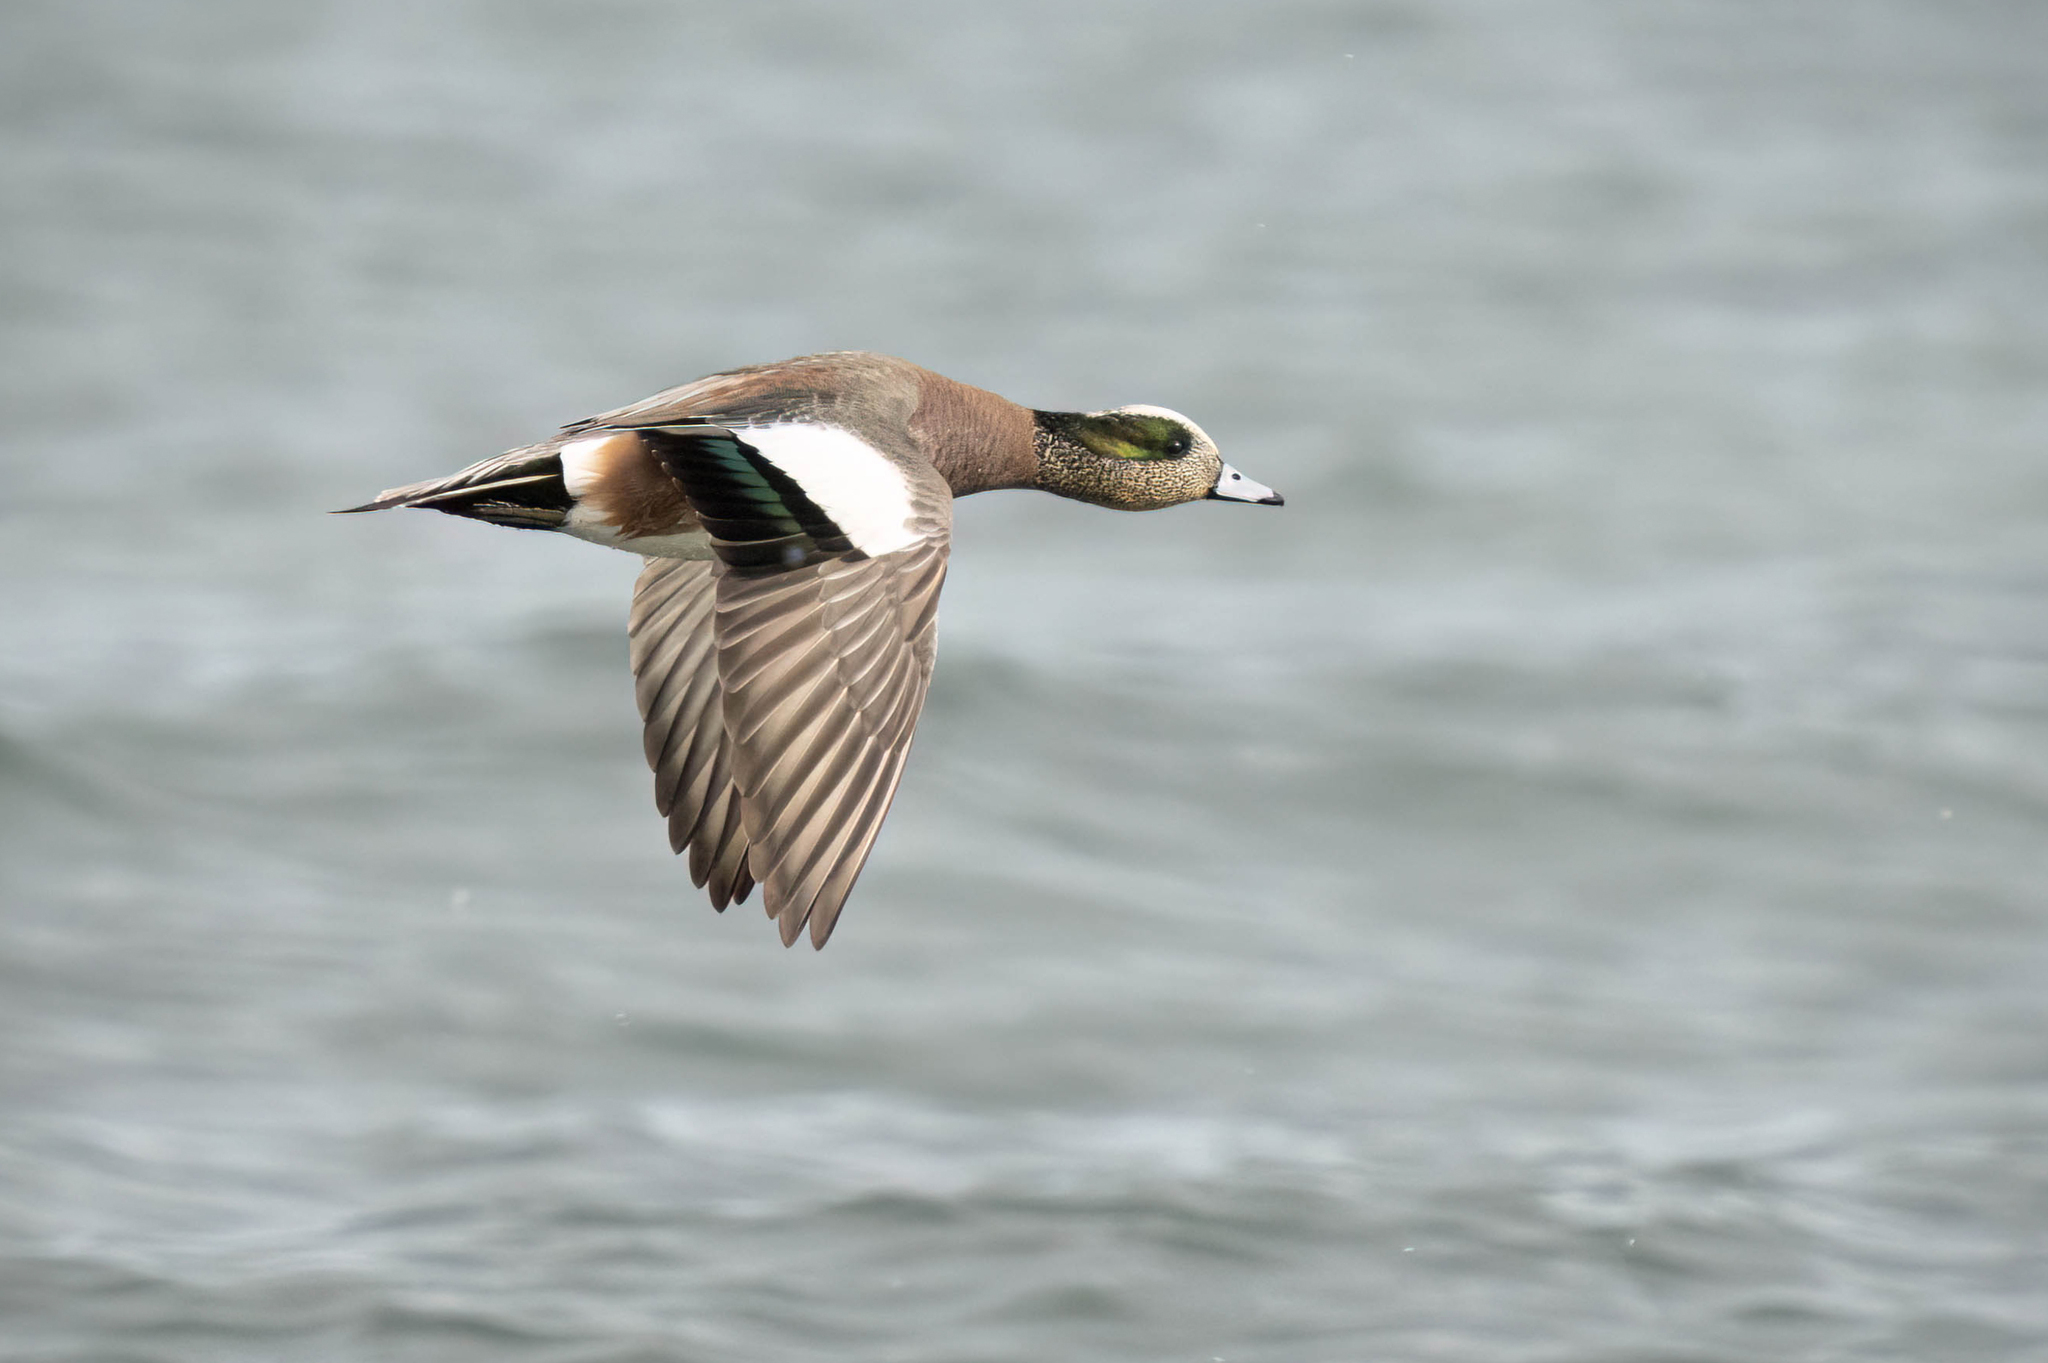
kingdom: Animalia
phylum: Chordata
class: Aves
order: Anseriformes
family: Anatidae
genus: Mareca
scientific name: Mareca americana
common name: American wigeon
